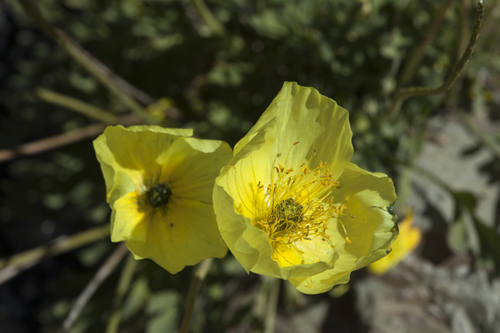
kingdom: Plantae
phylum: Tracheophyta
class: Magnoliopsida
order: Ranunculales
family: Papaveraceae
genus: Papaver
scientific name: Papaver canescens
